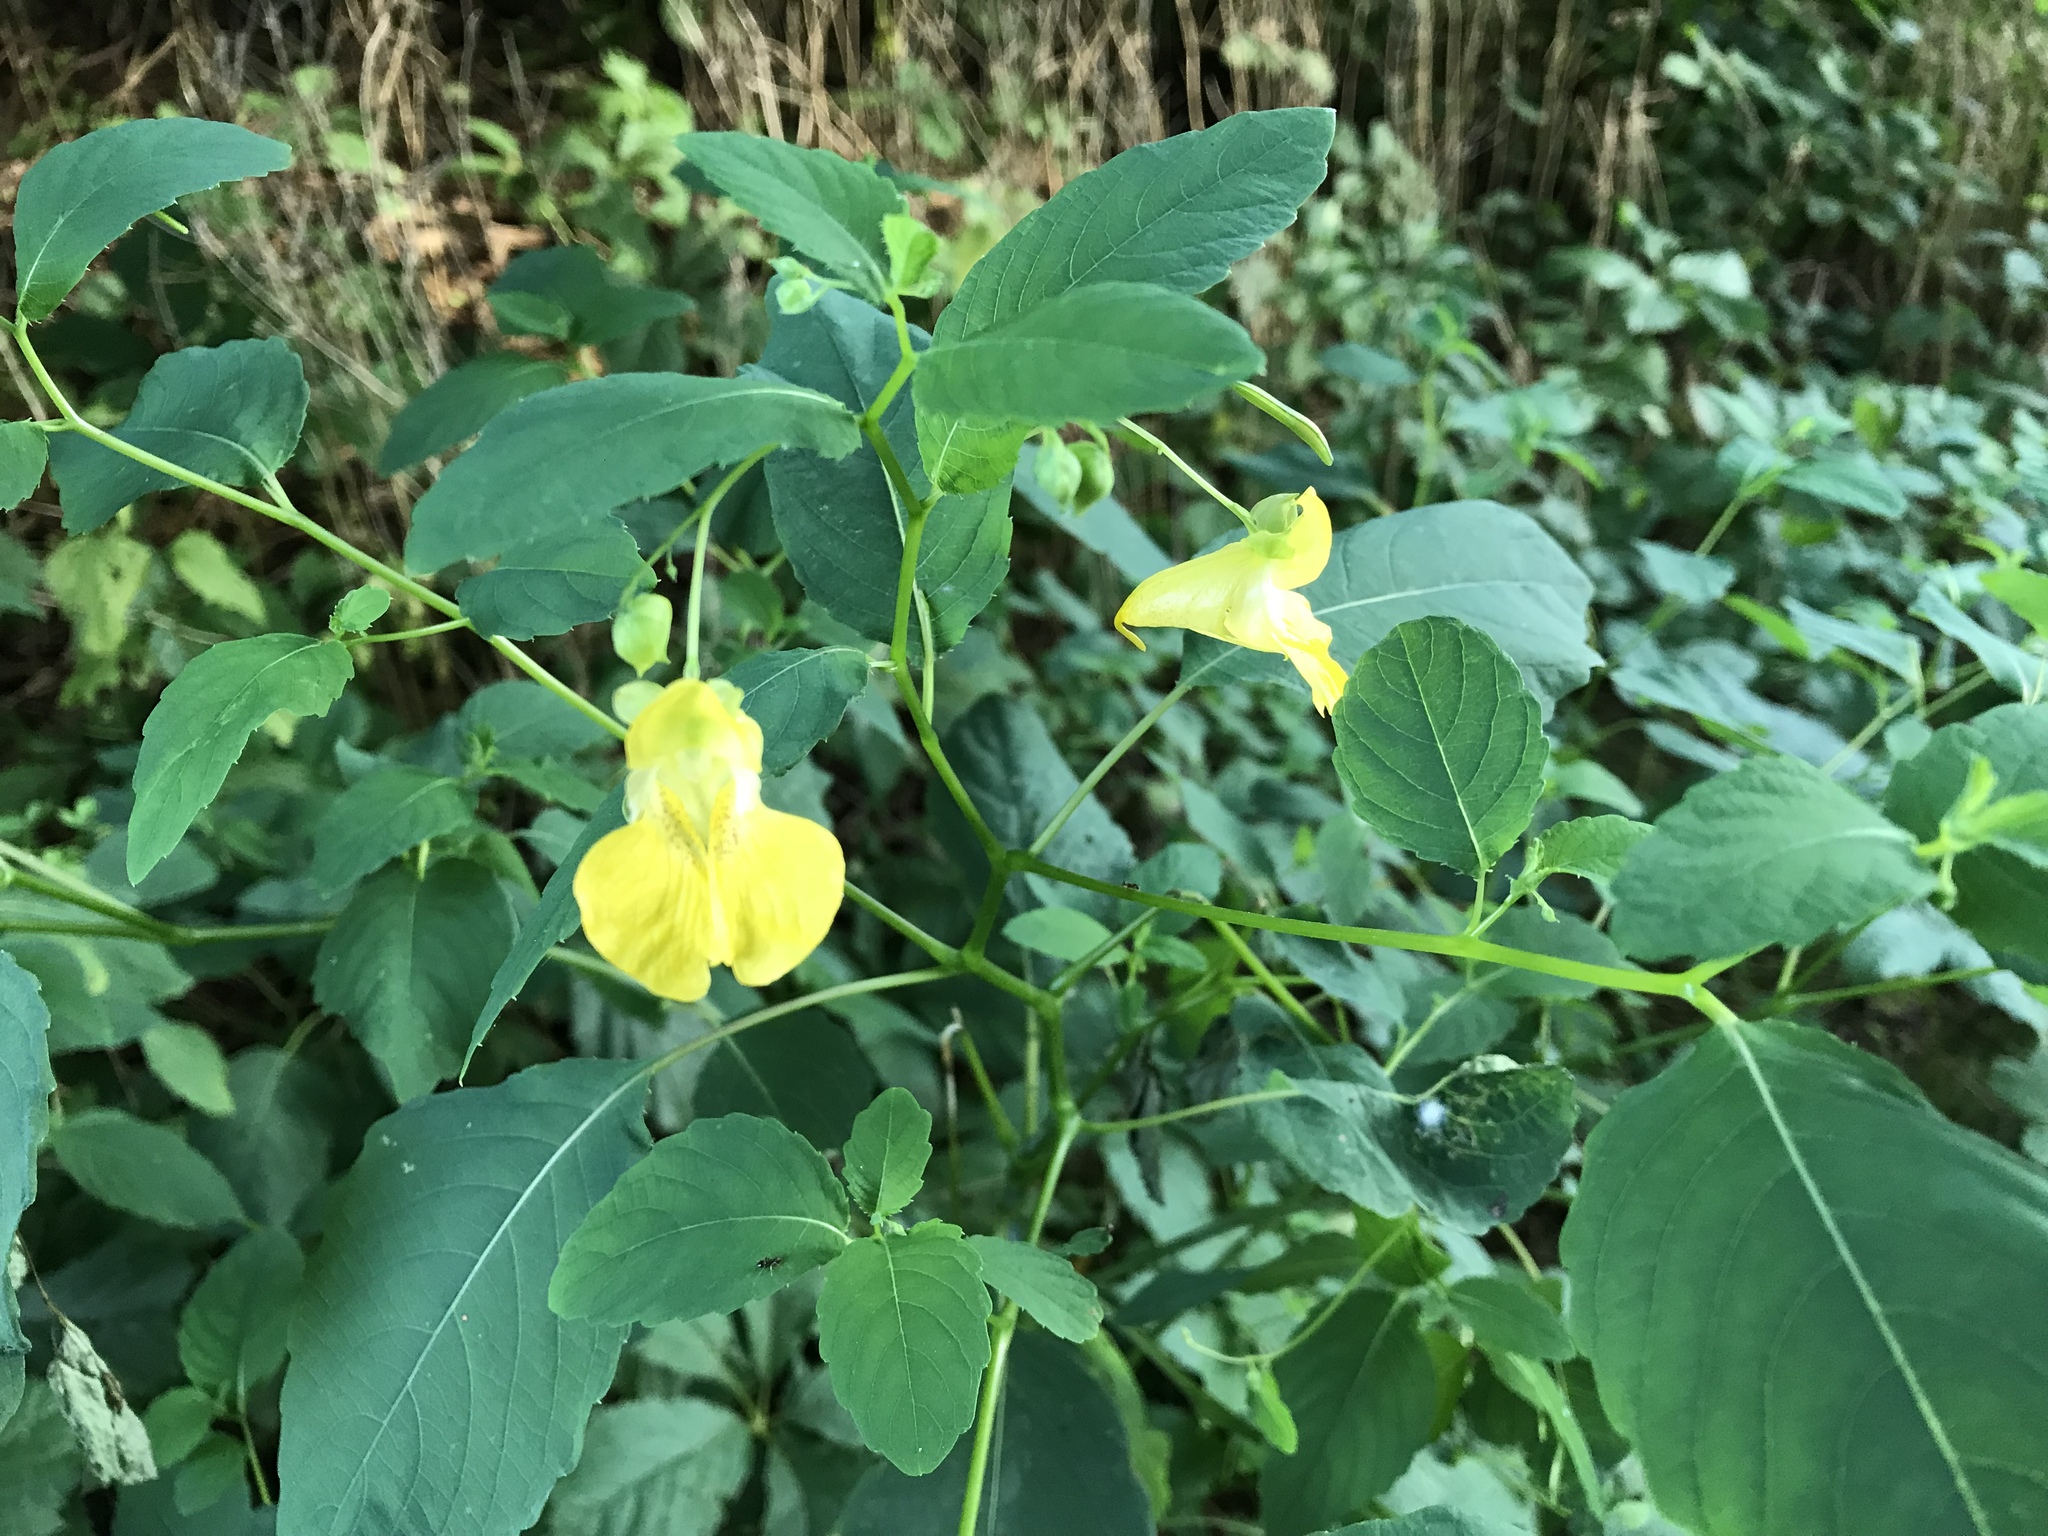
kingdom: Plantae
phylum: Tracheophyta
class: Magnoliopsida
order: Ericales
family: Balsaminaceae
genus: Impatiens
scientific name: Impatiens pallida
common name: Pale snapweed
